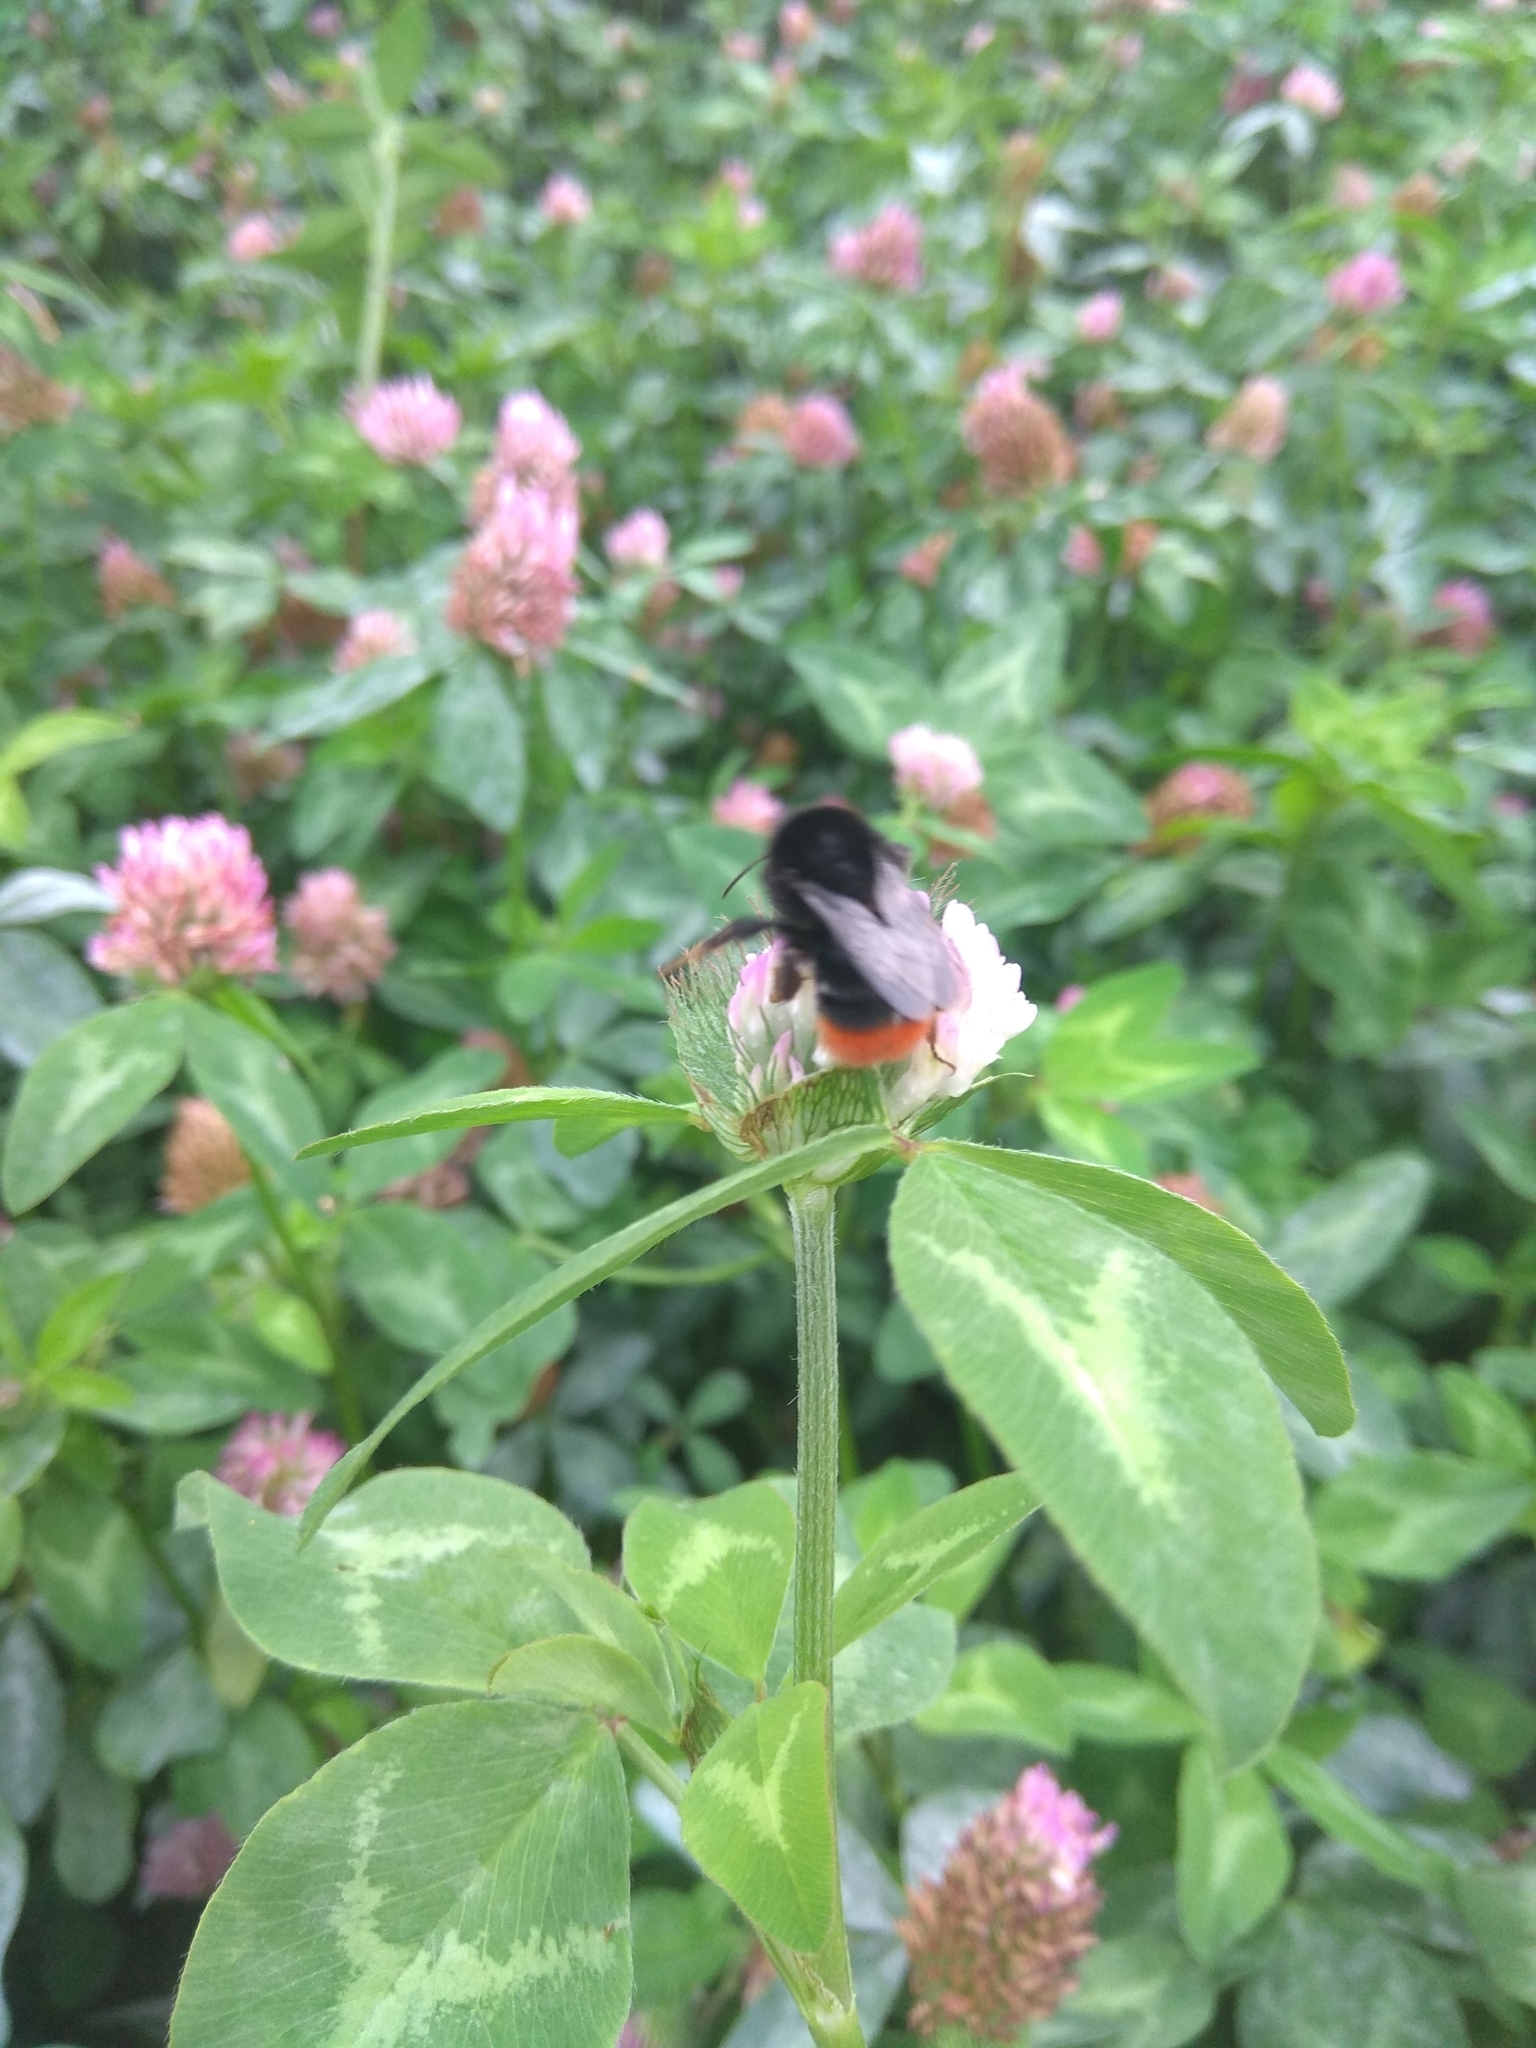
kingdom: Animalia
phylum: Arthropoda
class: Insecta
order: Hymenoptera
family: Apidae
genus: Bombus
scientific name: Bombus lapidarius
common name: Large red-tailed humble-bee
